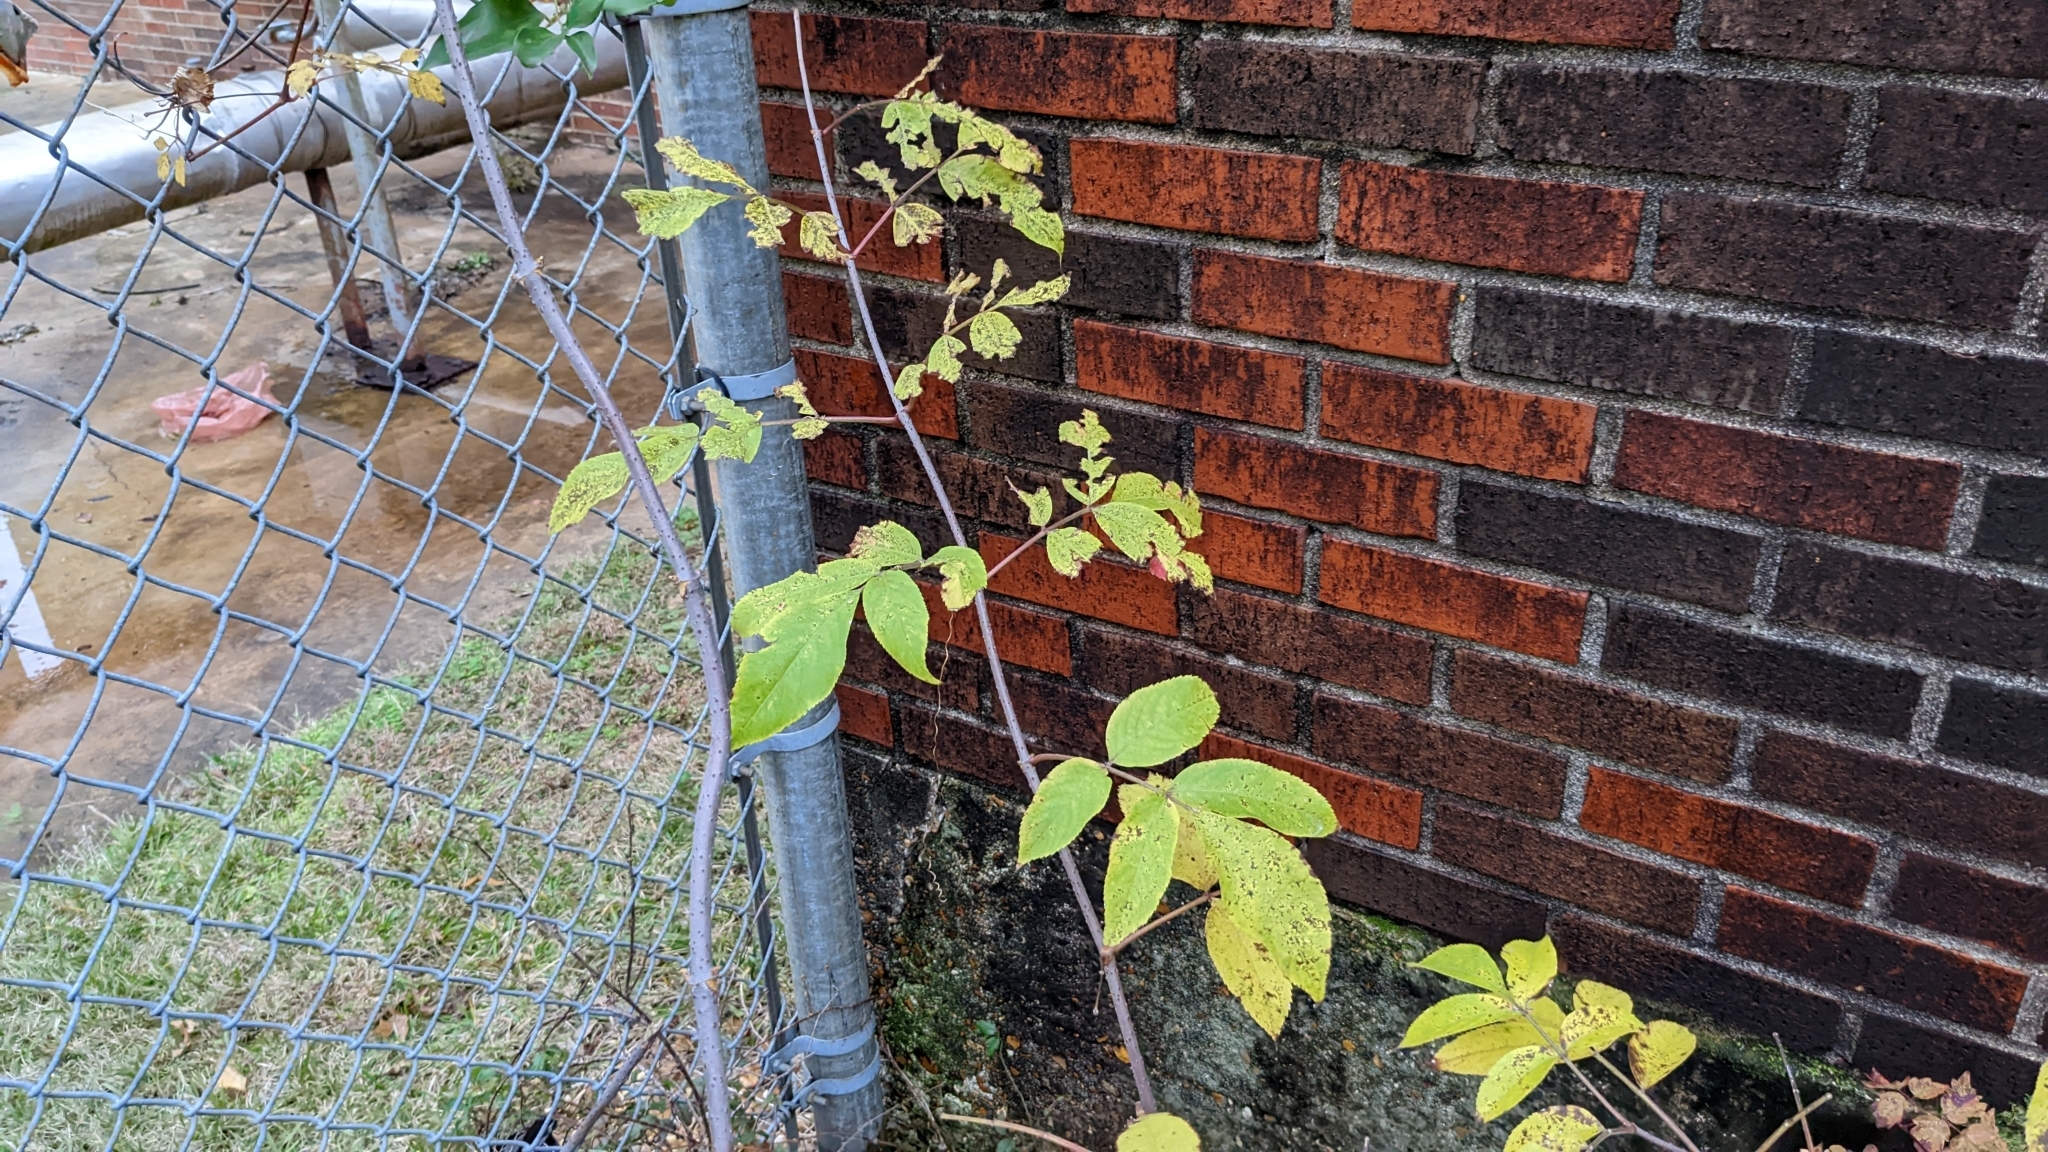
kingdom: Plantae
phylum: Tracheophyta
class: Magnoliopsida
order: Dipsacales
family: Viburnaceae
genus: Sambucus
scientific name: Sambucus canadensis
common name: American elder
